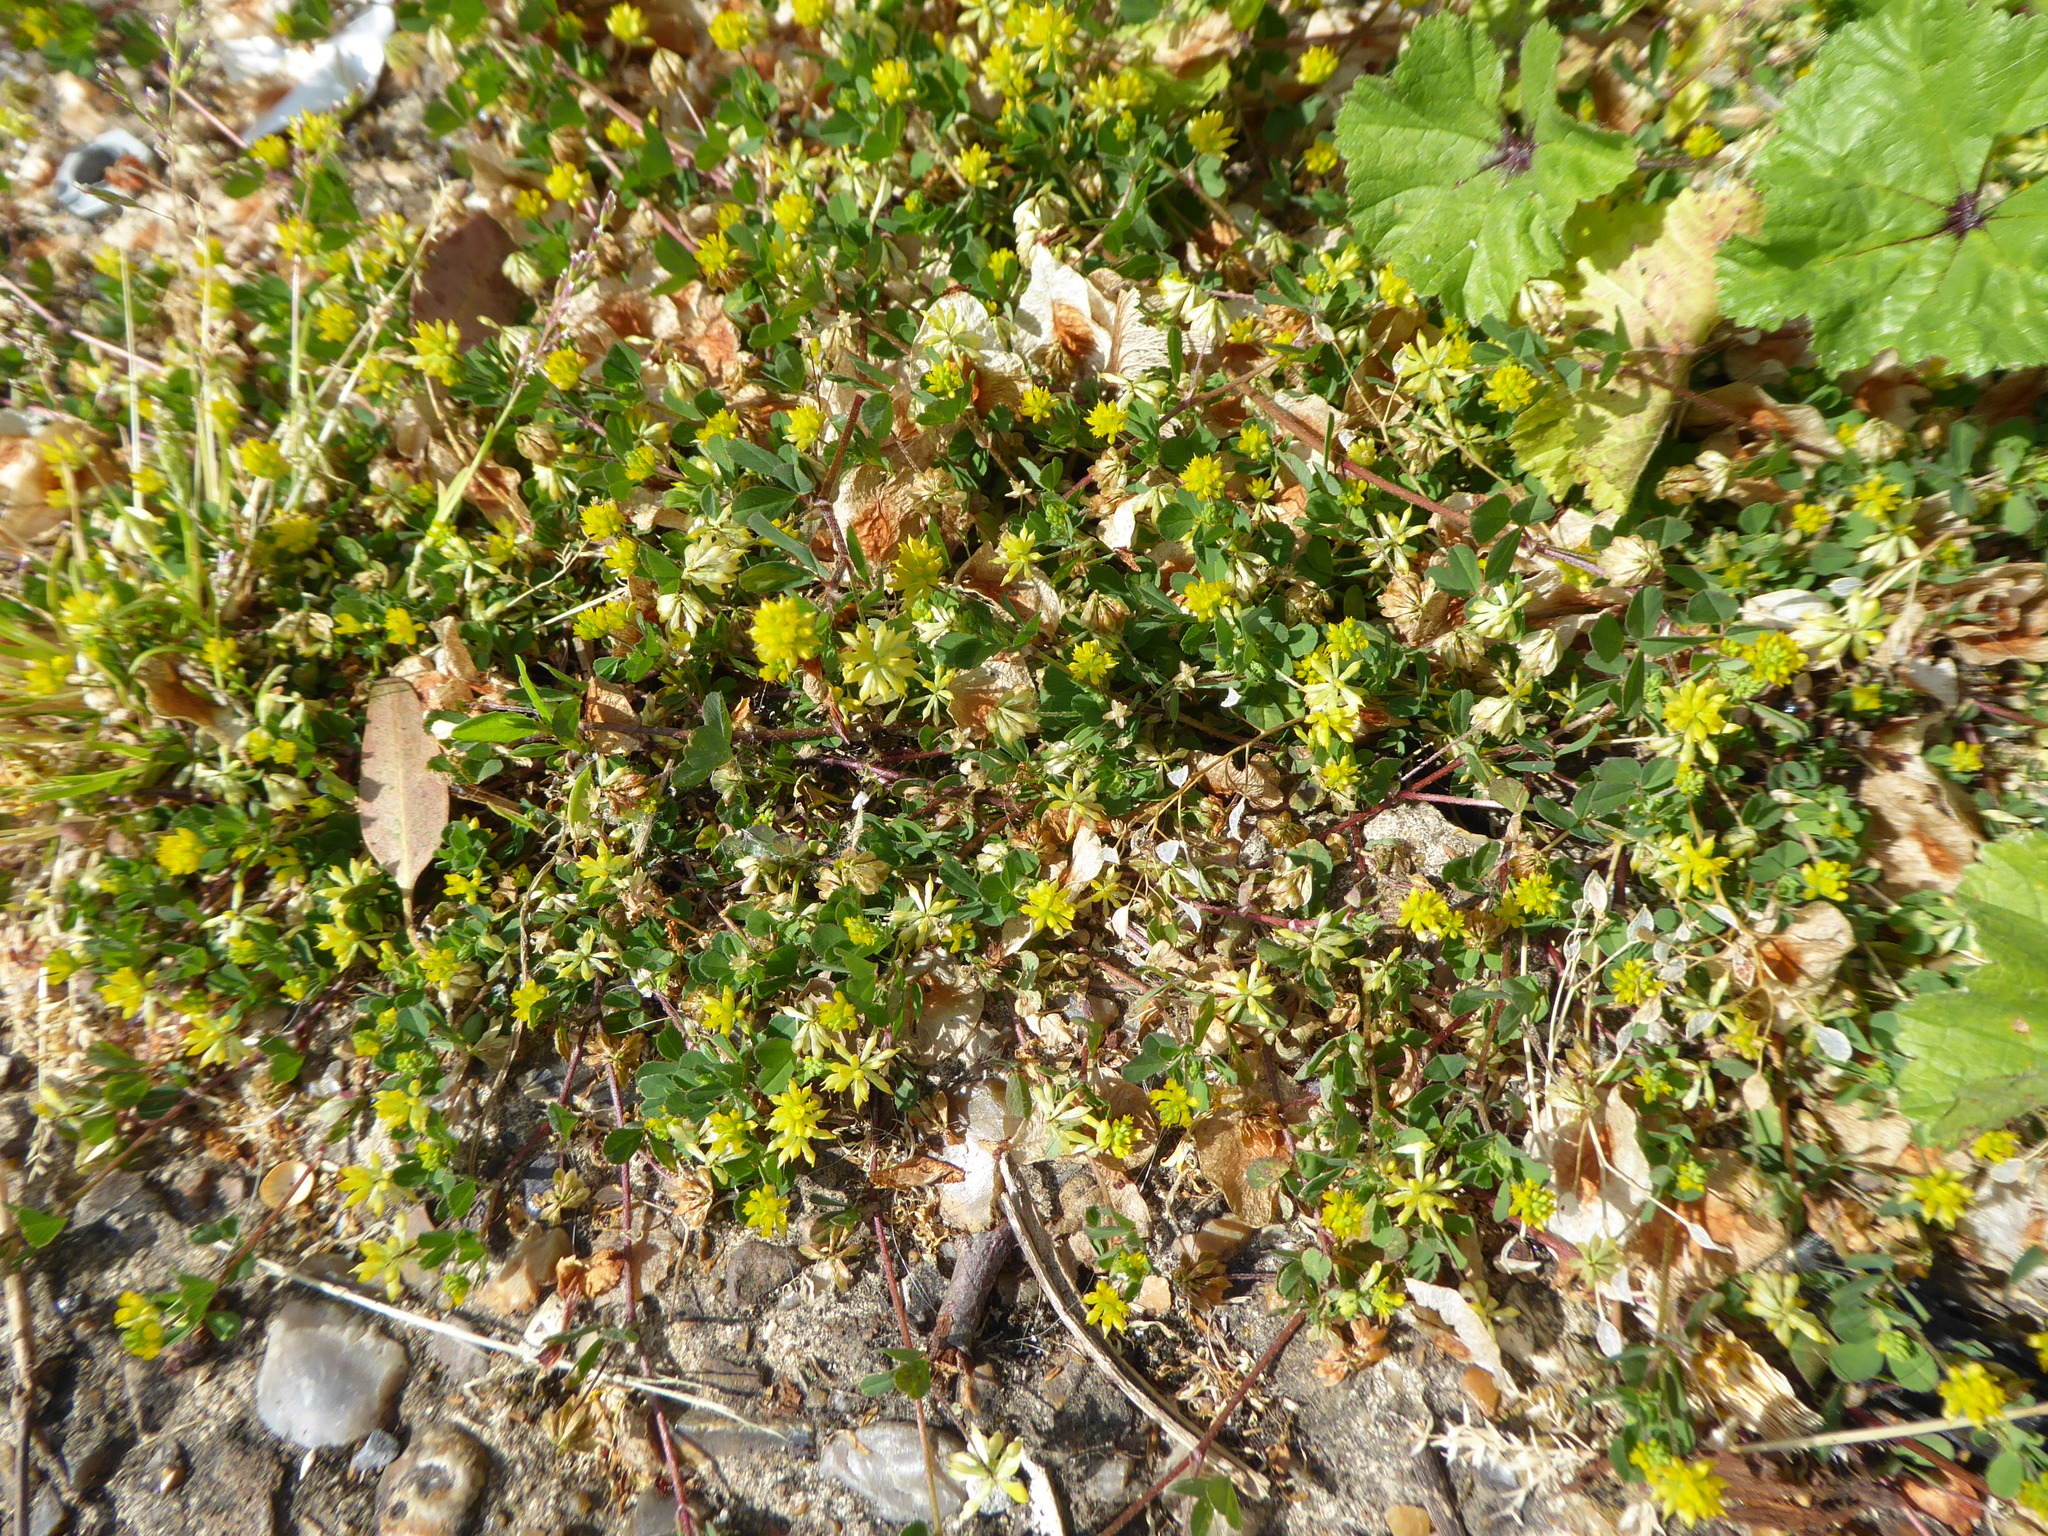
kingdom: Plantae
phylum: Tracheophyta
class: Magnoliopsida
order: Fabales
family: Fabaceae
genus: Trifolium
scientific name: Trifolium dubium
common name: Suckling clover
